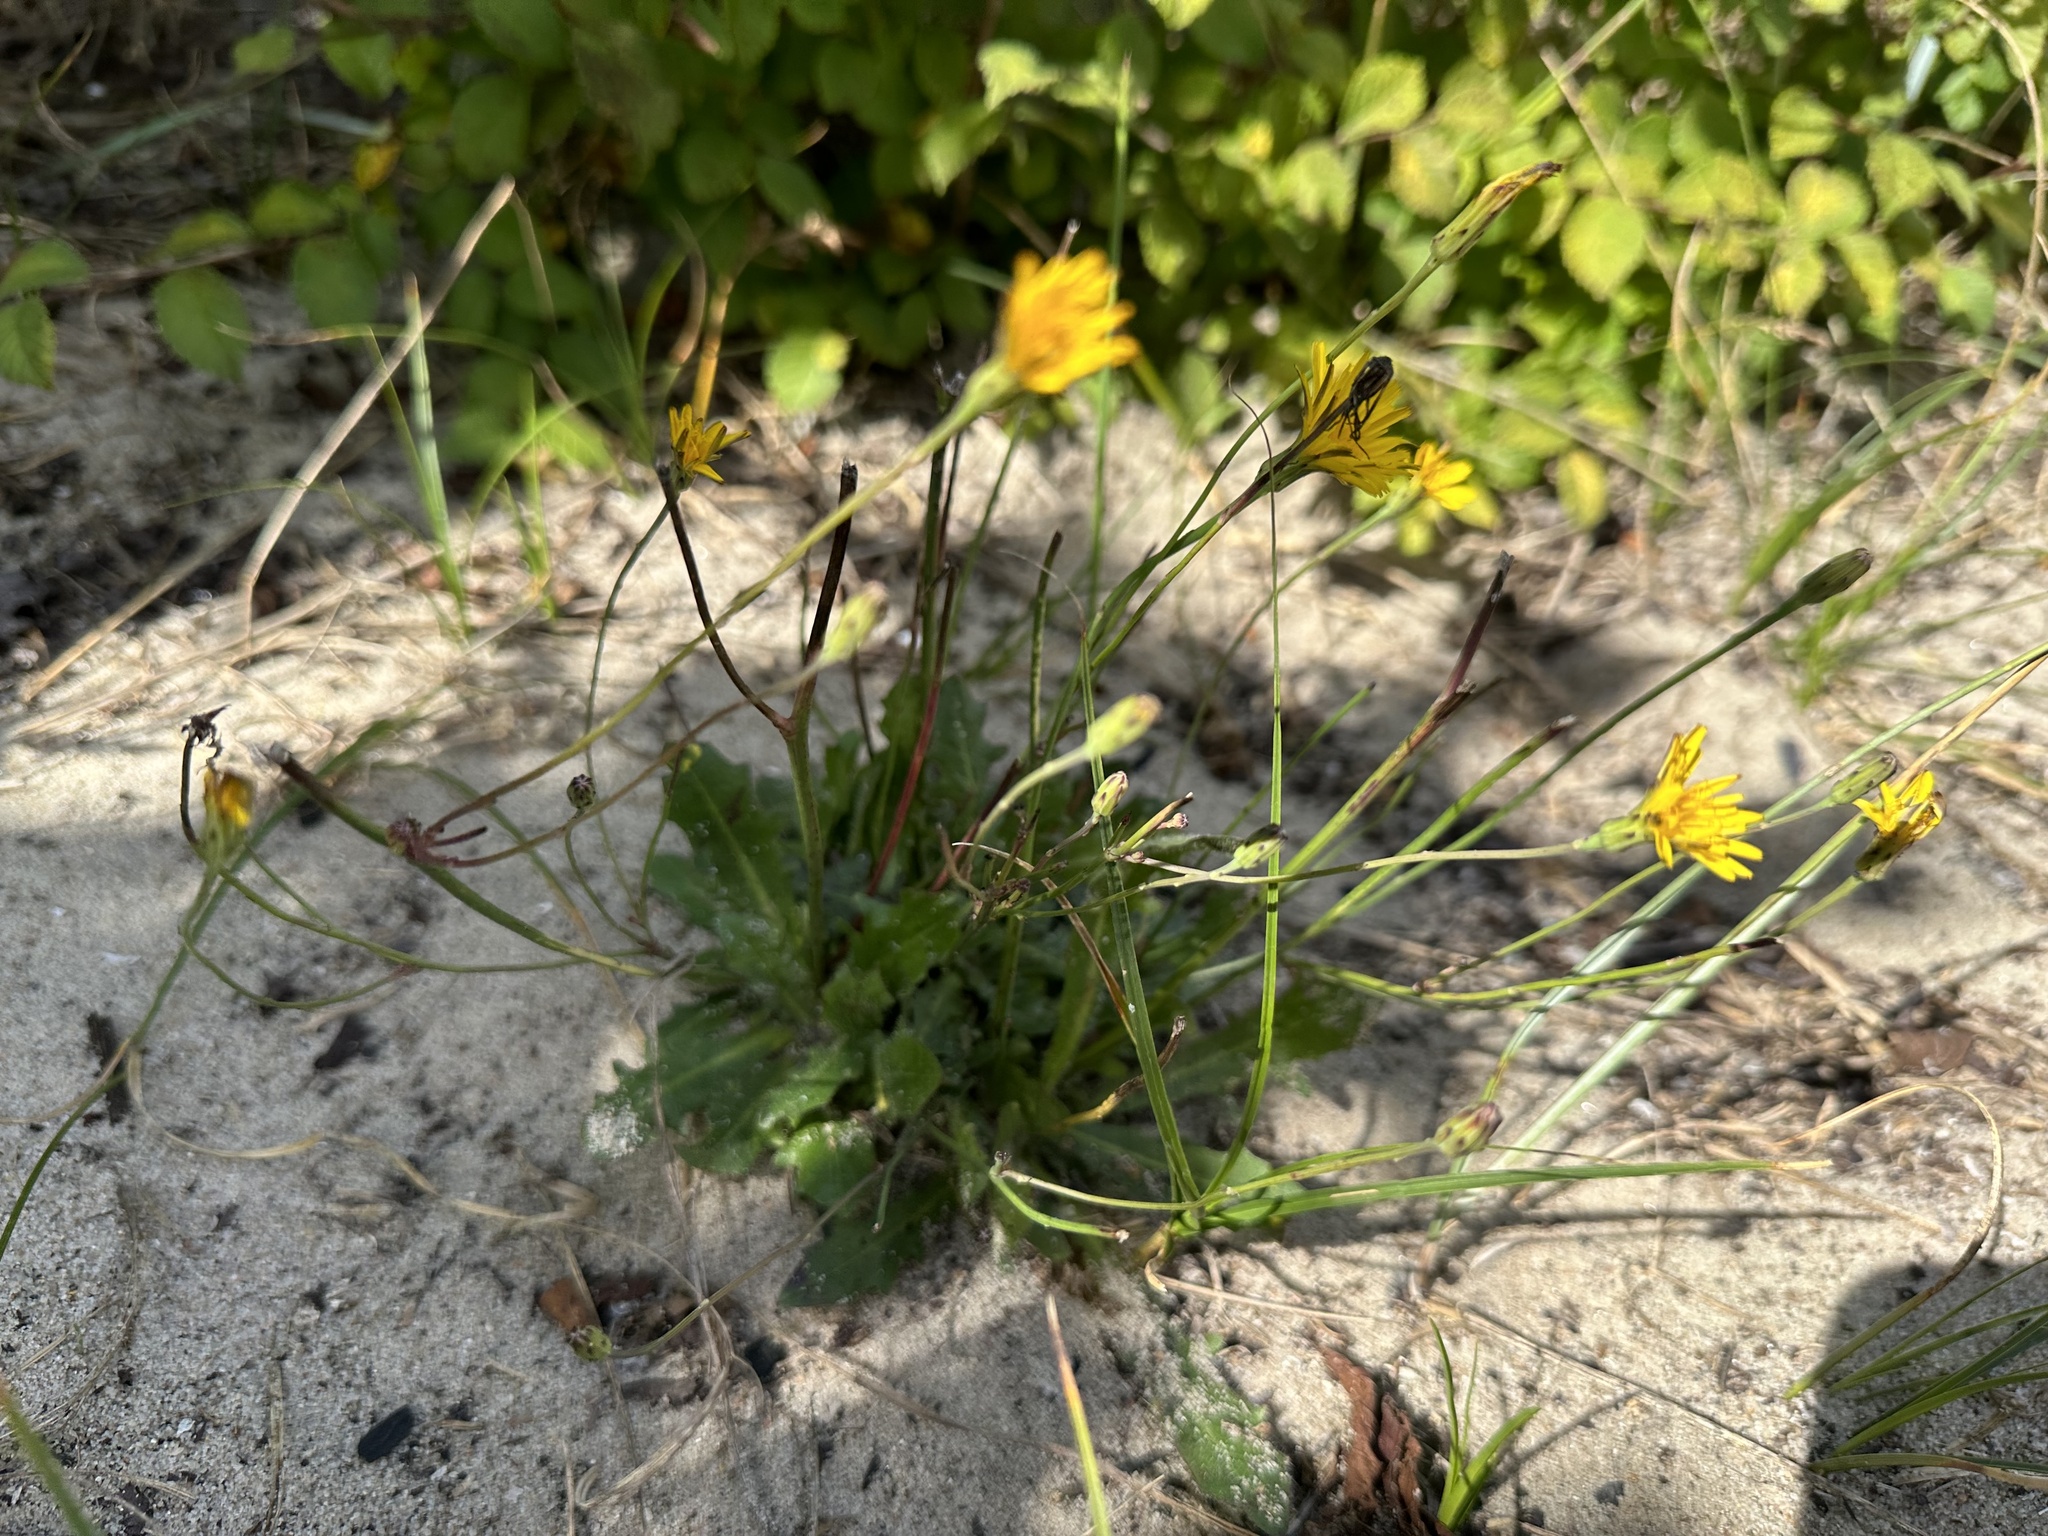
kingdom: Plantae
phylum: Tracheophyta
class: Magnoliopsida
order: Asterales
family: Asteraceae
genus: Hypochaeris
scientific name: Hypochaeris radicata
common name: Flatweed
